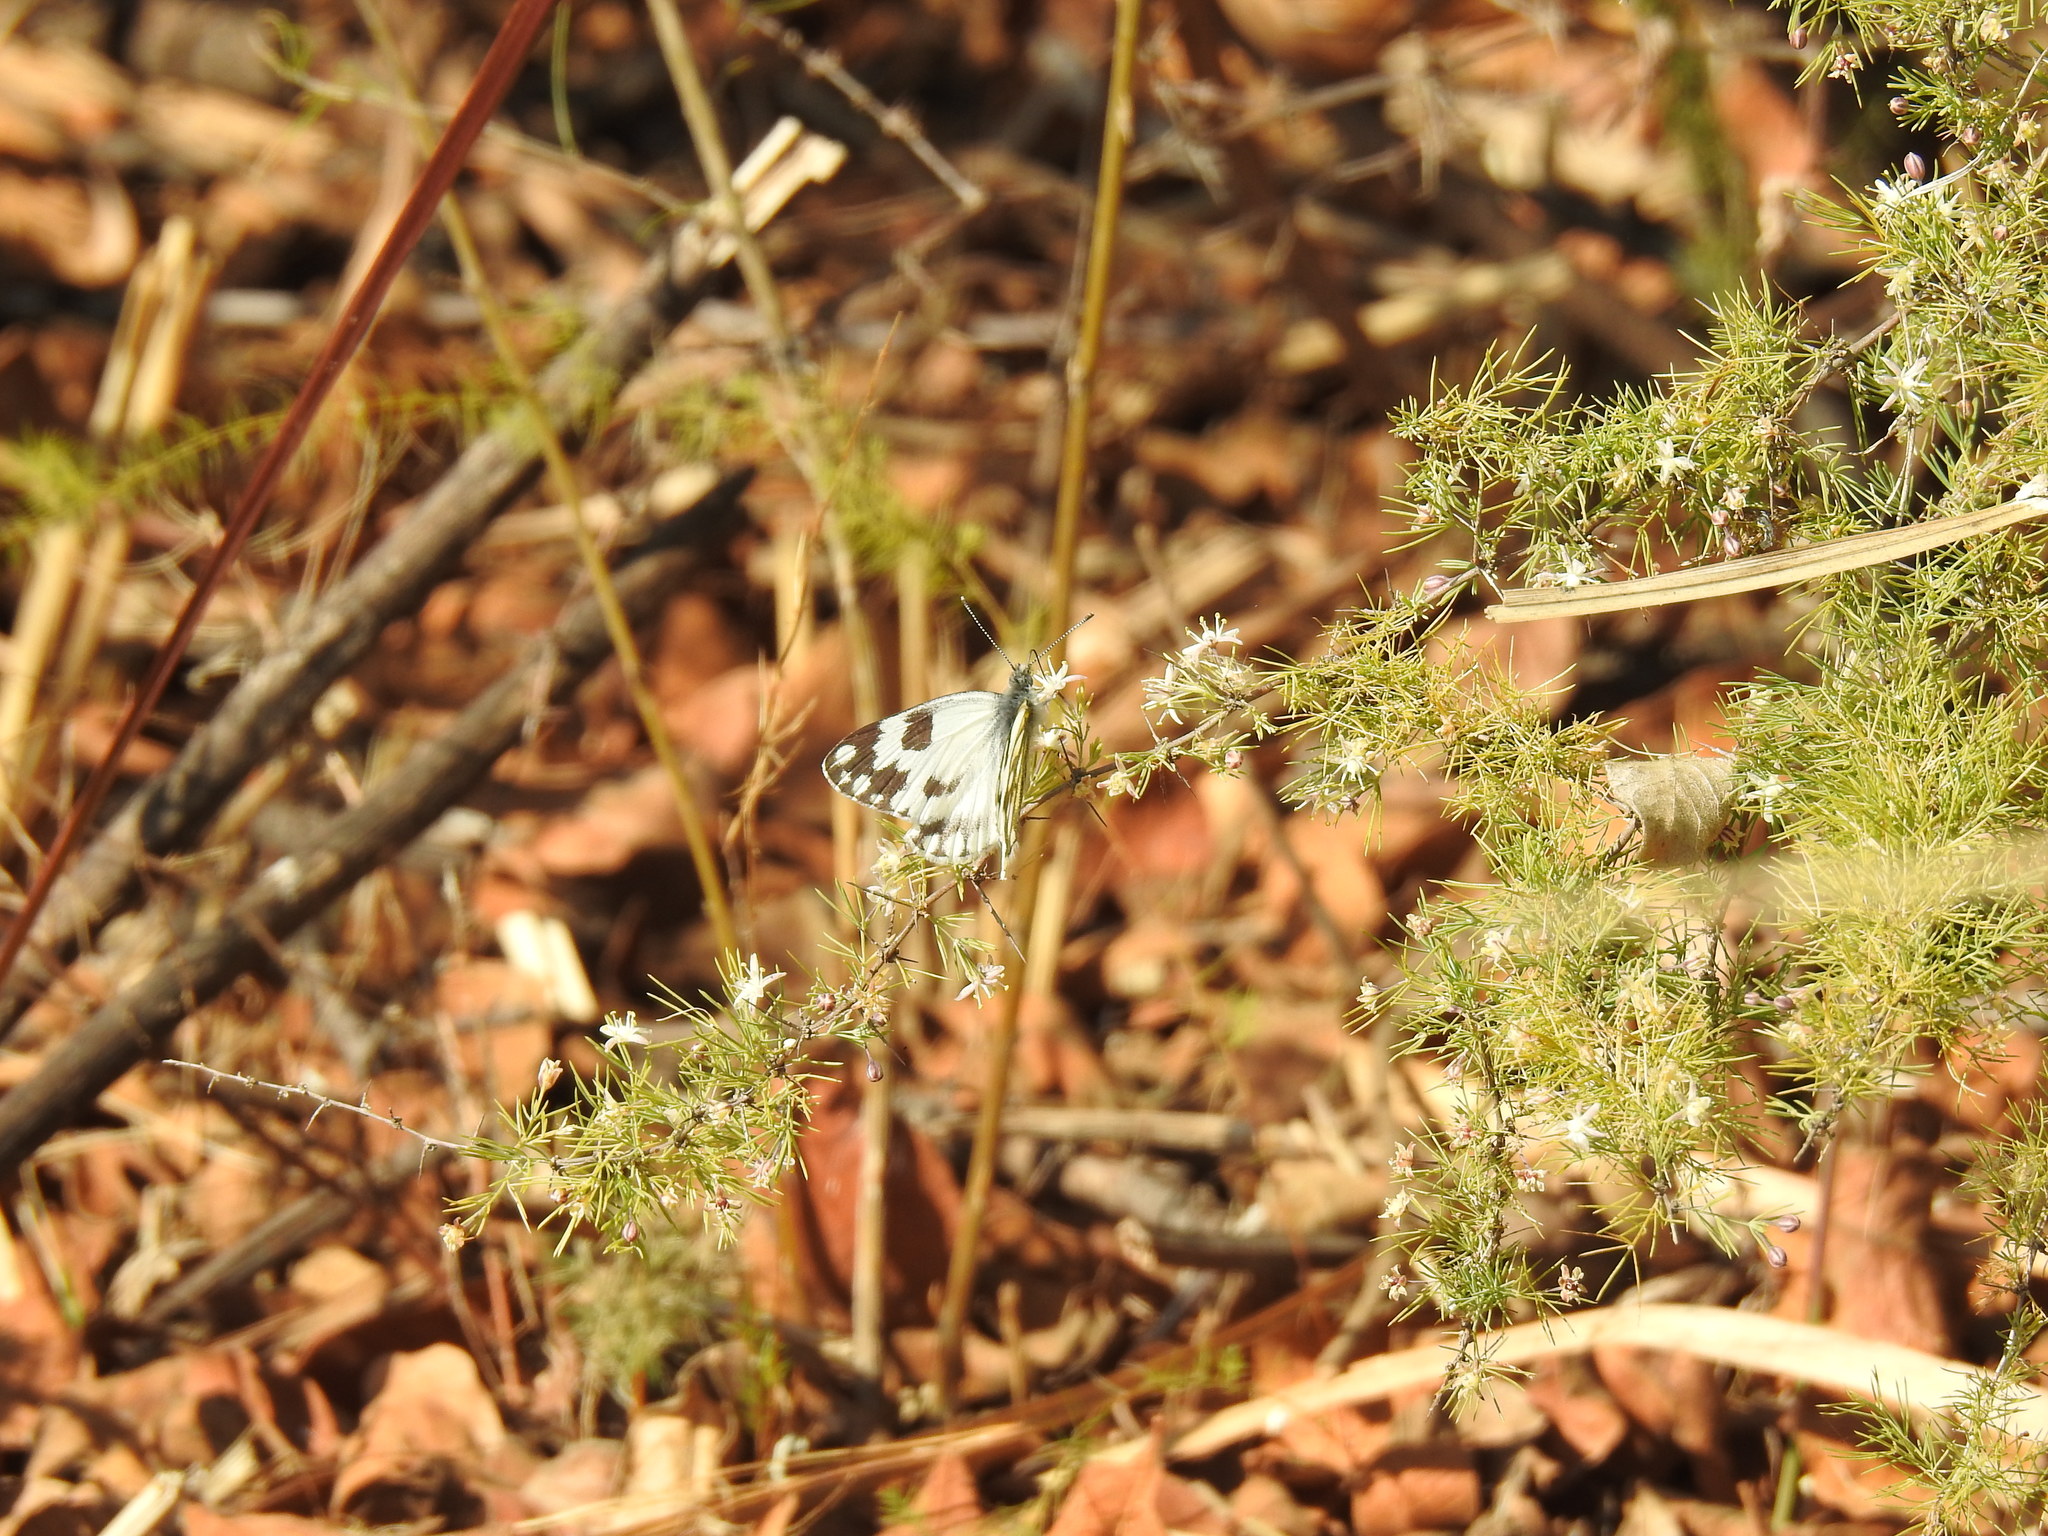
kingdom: Animalia
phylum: Arthropoda
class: Insecta
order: Lepidoptera
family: Pieridae
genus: Pontia
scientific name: Pontia helice
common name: Meadow white
